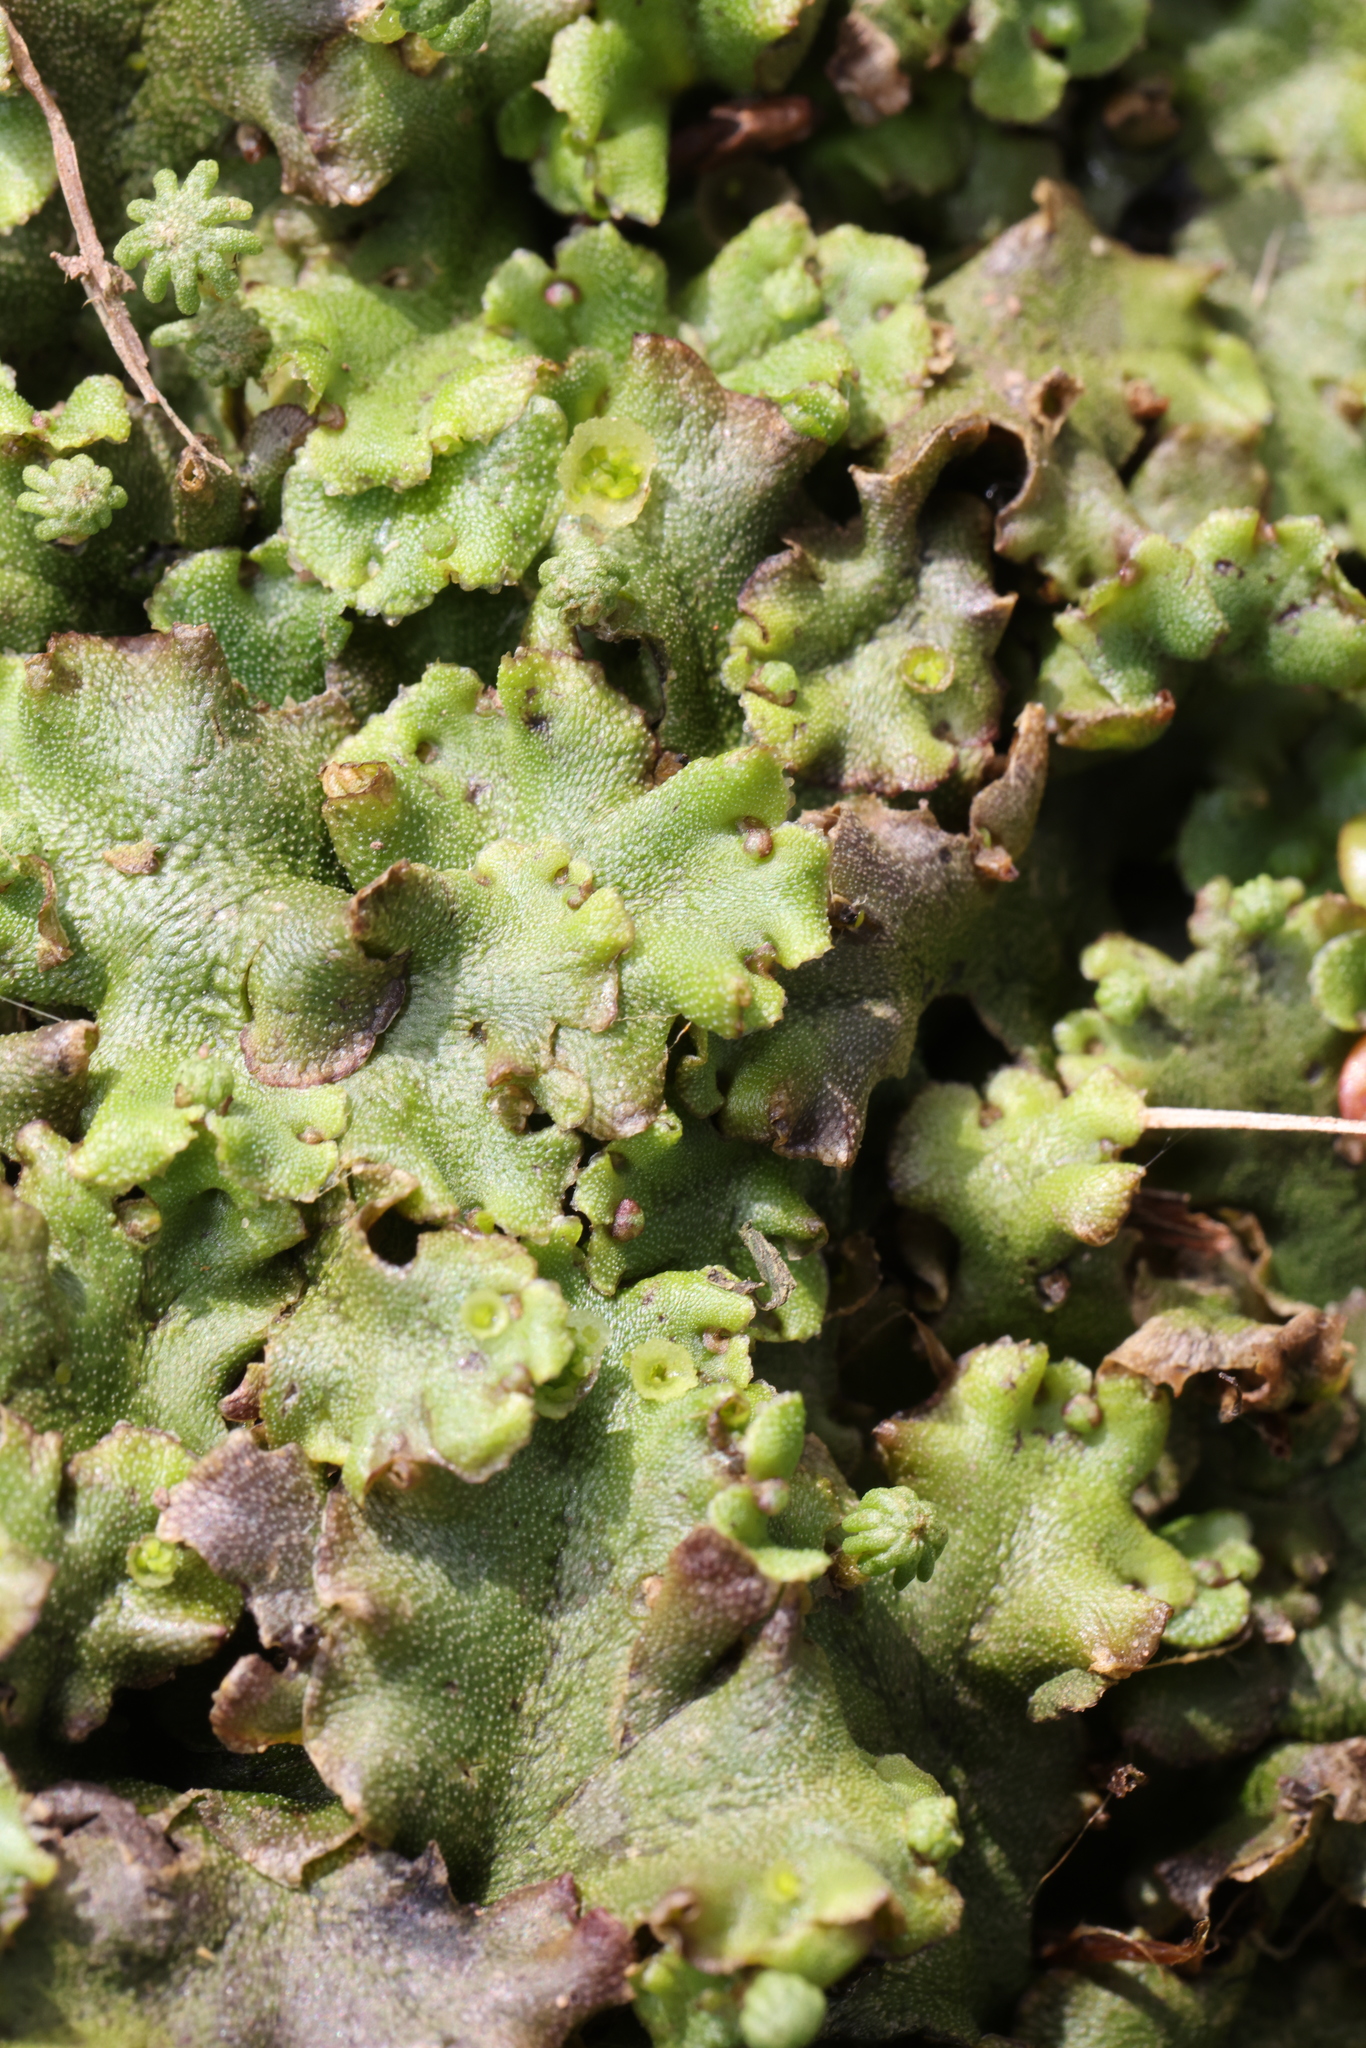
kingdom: Plantae
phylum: Marchantiophyta
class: Marchantiopsida
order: Marchantiales
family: Marchantiaceae
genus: Marchantia
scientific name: Marchantia polymorpha
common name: Common liverwort
